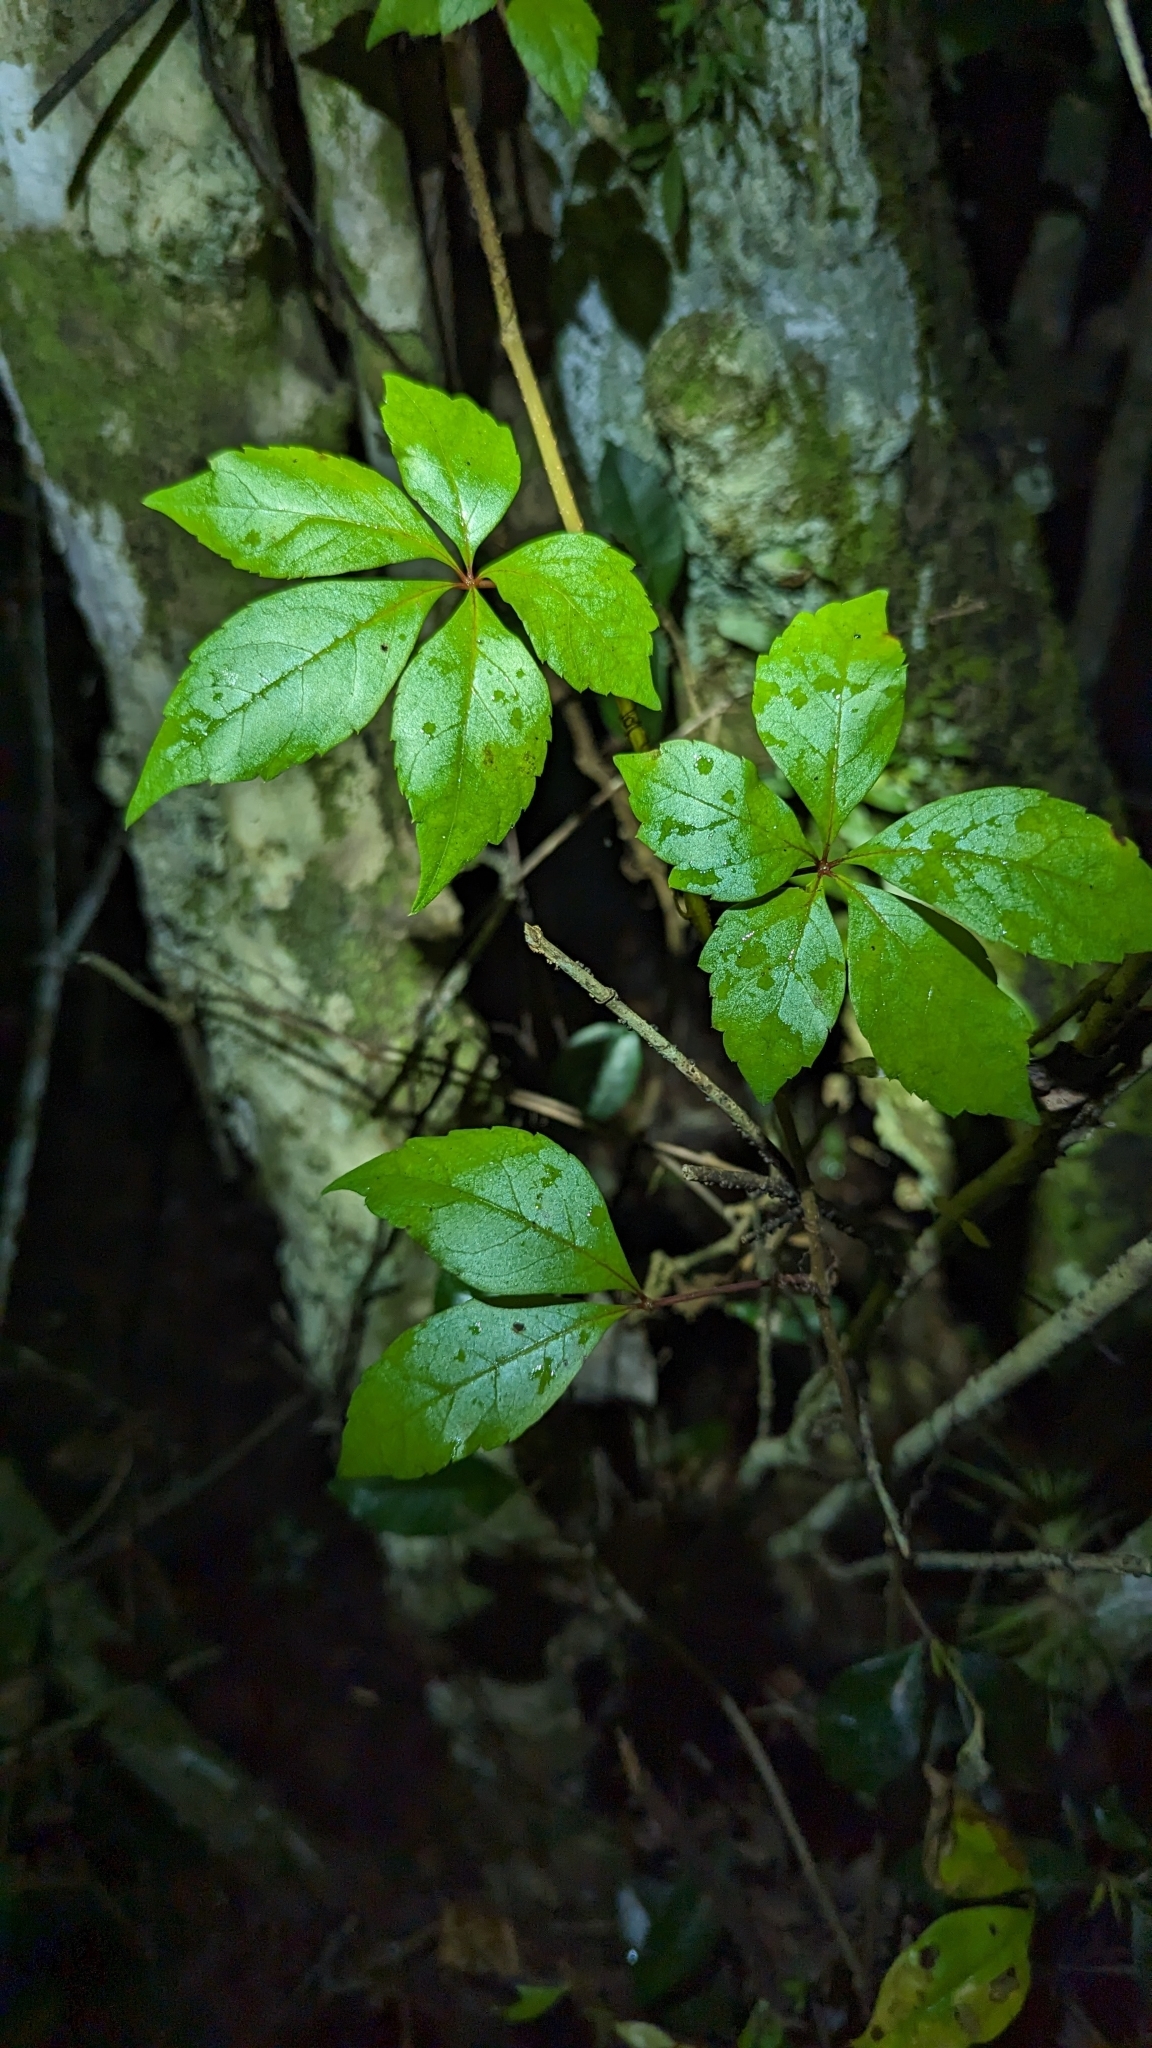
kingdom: Plantae
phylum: Tracheophyta
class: Magnoliopsida
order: Vitales
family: Vitaceae
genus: Parthenocissus
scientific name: Parthenocissus quinquefolia
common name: Virginia-creeper
